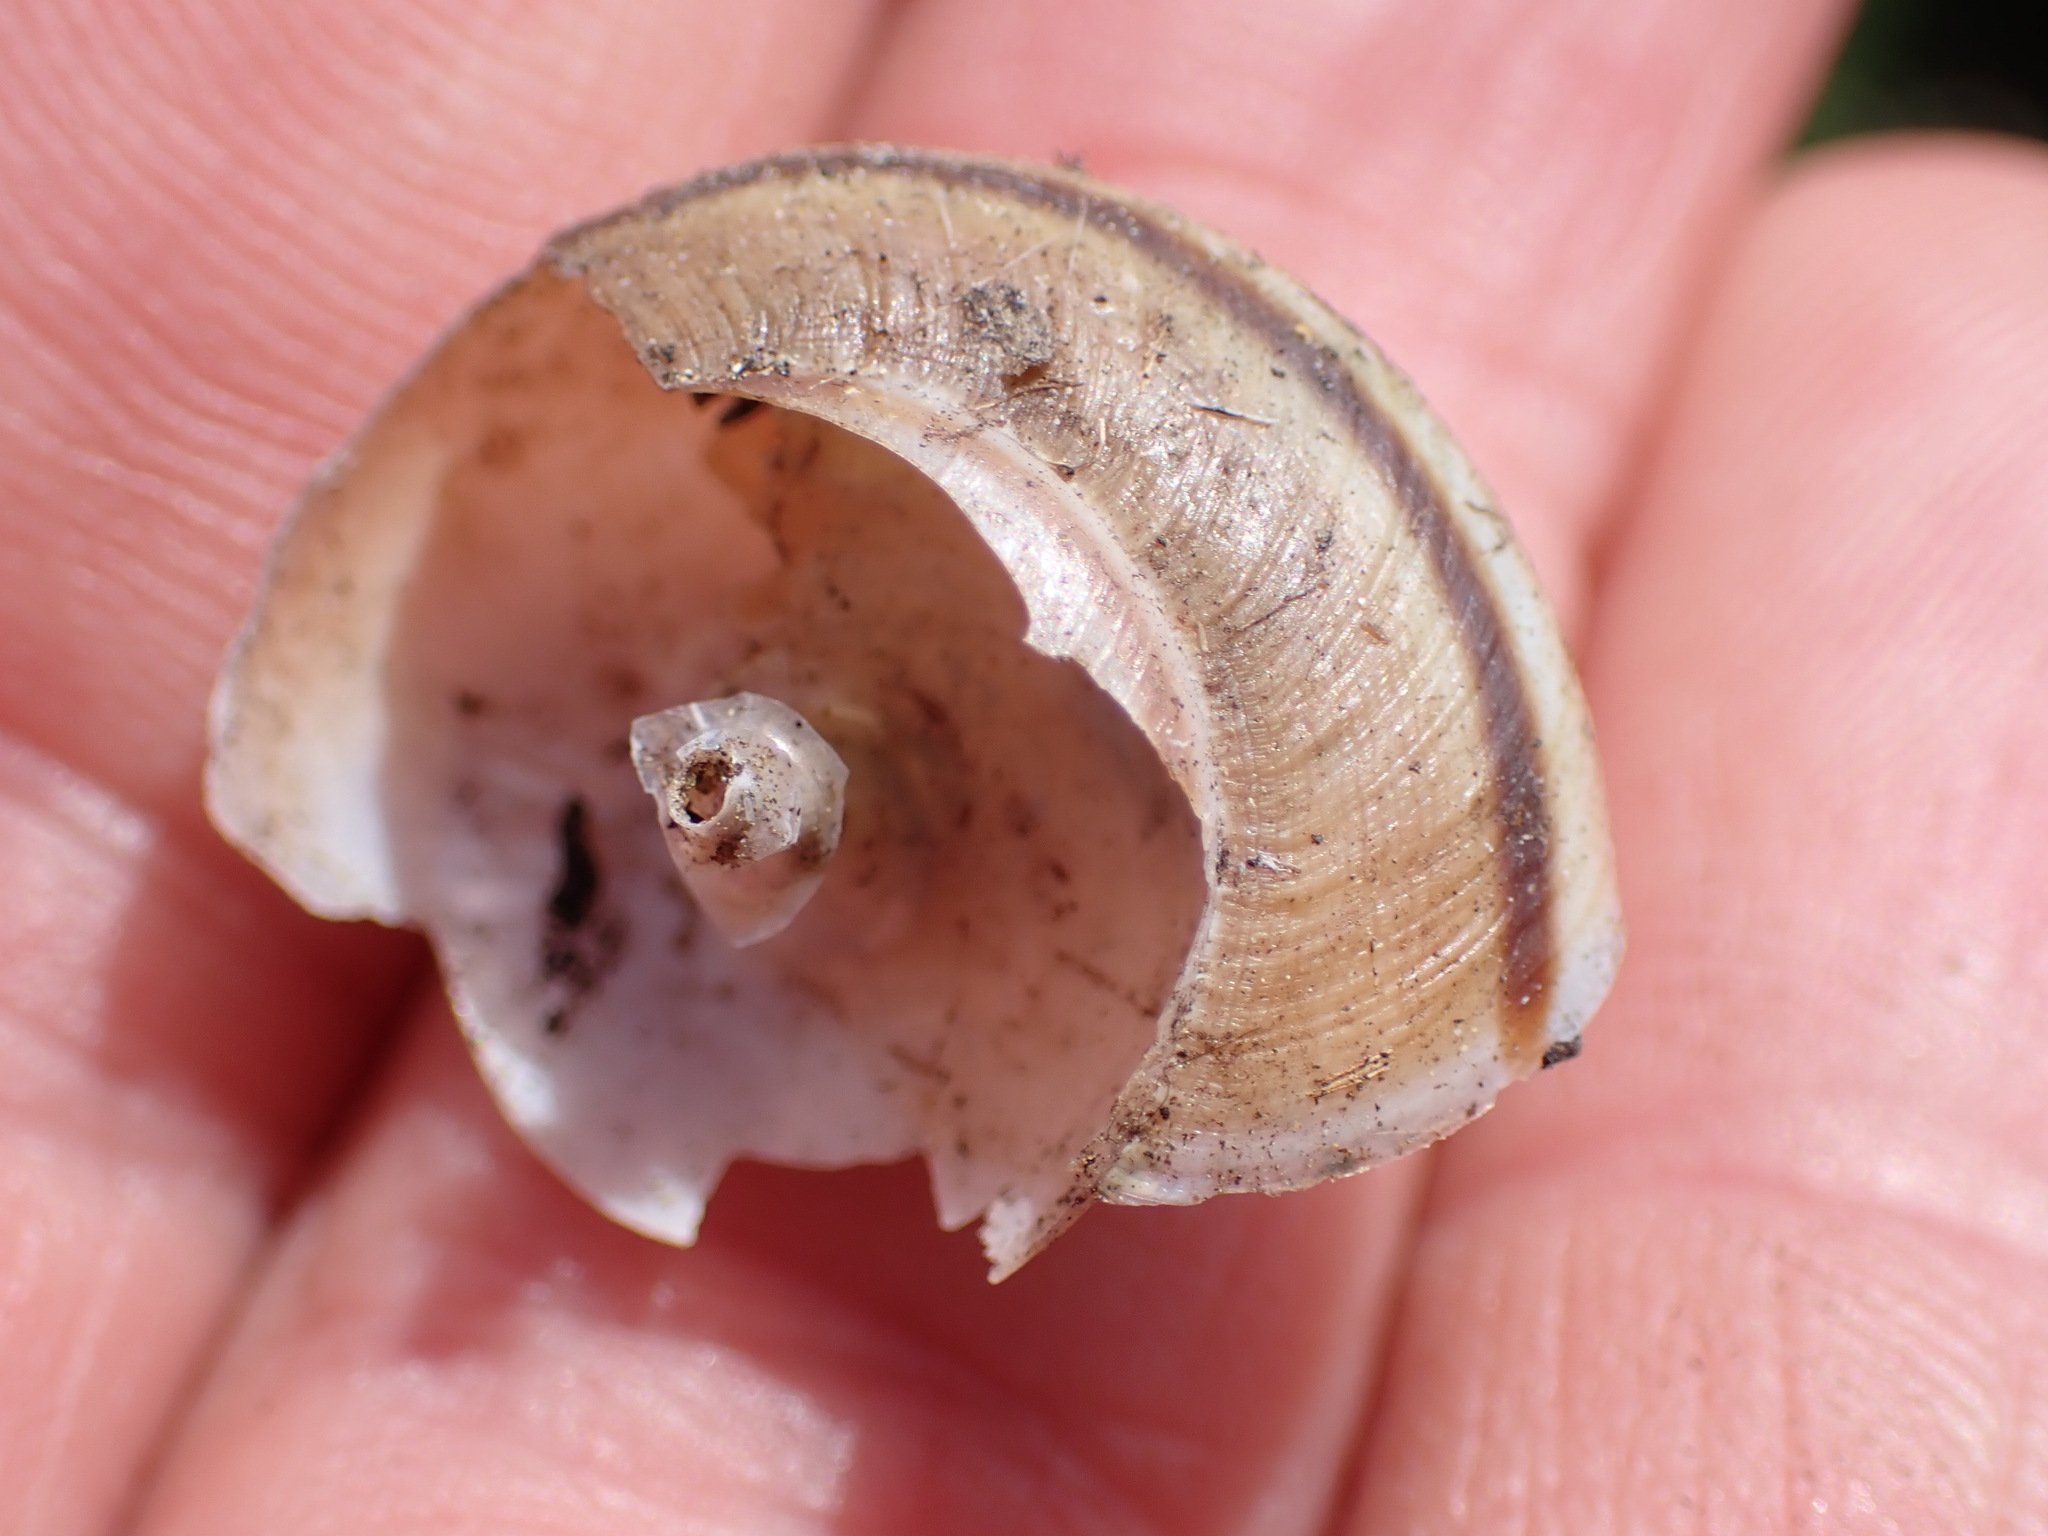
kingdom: Animalia
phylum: Mollusca
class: Gastropoda
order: Stylommatophora
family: Xanthonychidae
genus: Helminthoglypta
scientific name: Helminthoglypta traskii
